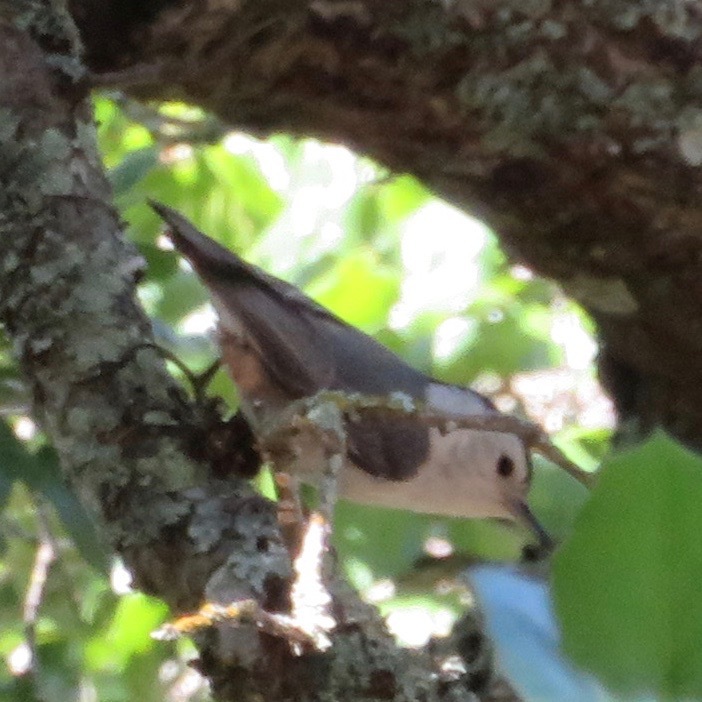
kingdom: Animalia
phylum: Chordata
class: Aves
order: Passeriformes
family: Sittidae
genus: Sitta
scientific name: Sitta carolinensis
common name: White-breasted nuthatch
